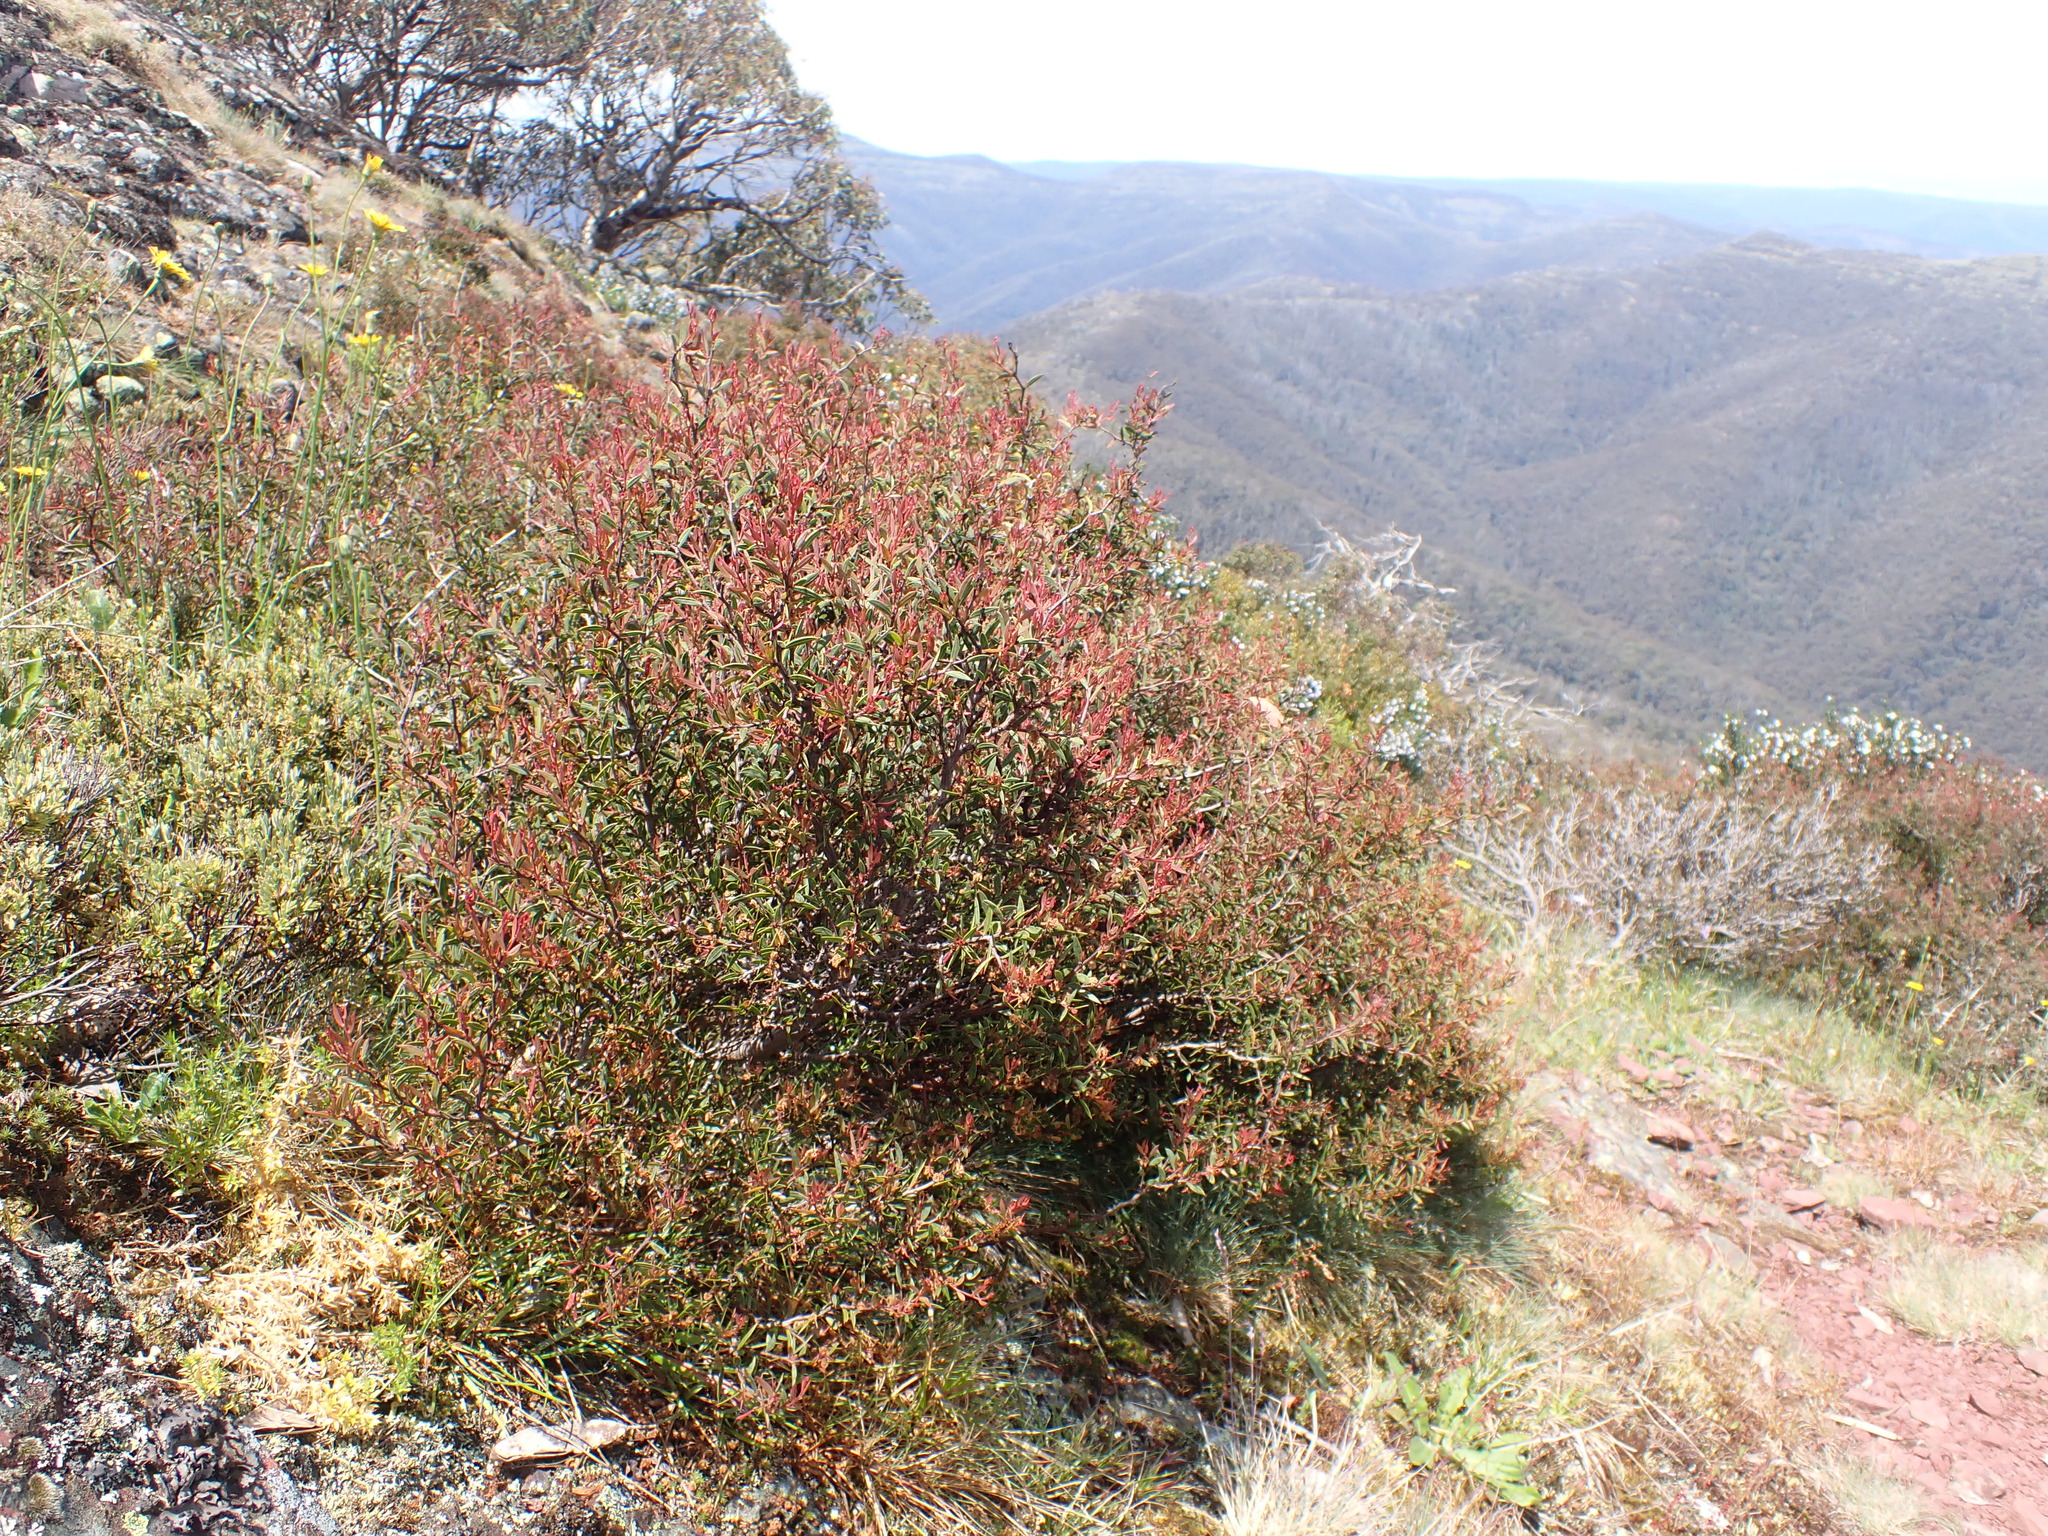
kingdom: Plantae
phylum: Tracheophyta
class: Magnoliopsida
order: Fabales
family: Fabaceae
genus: Acacia
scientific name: Acacia siculiformis
